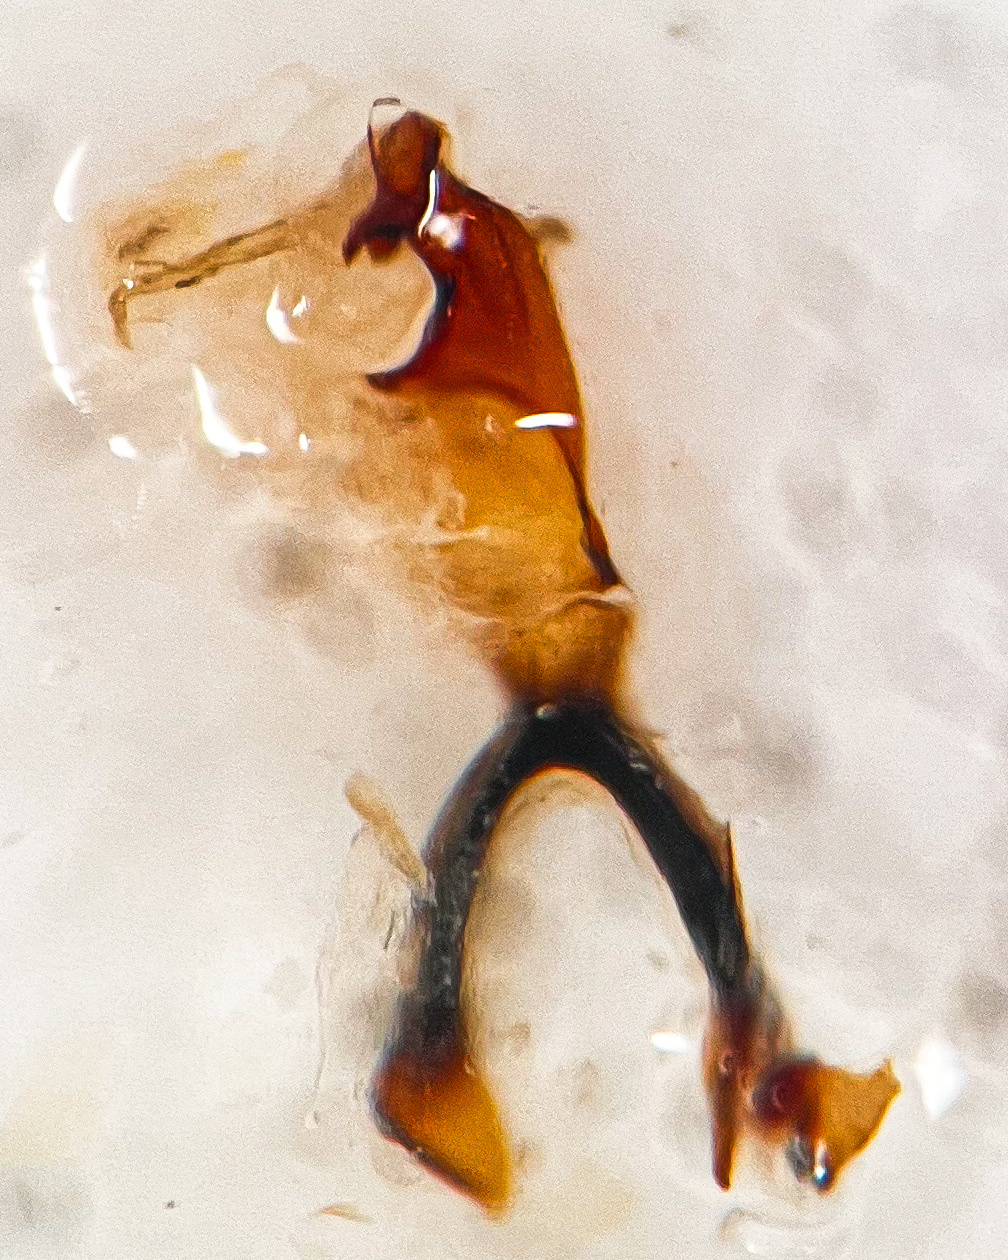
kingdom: Animalia
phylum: Arthropoda
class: Insecta
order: Hemiptera
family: Cicadellidae
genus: Anoplotettix
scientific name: Anoplotettix horvathi
